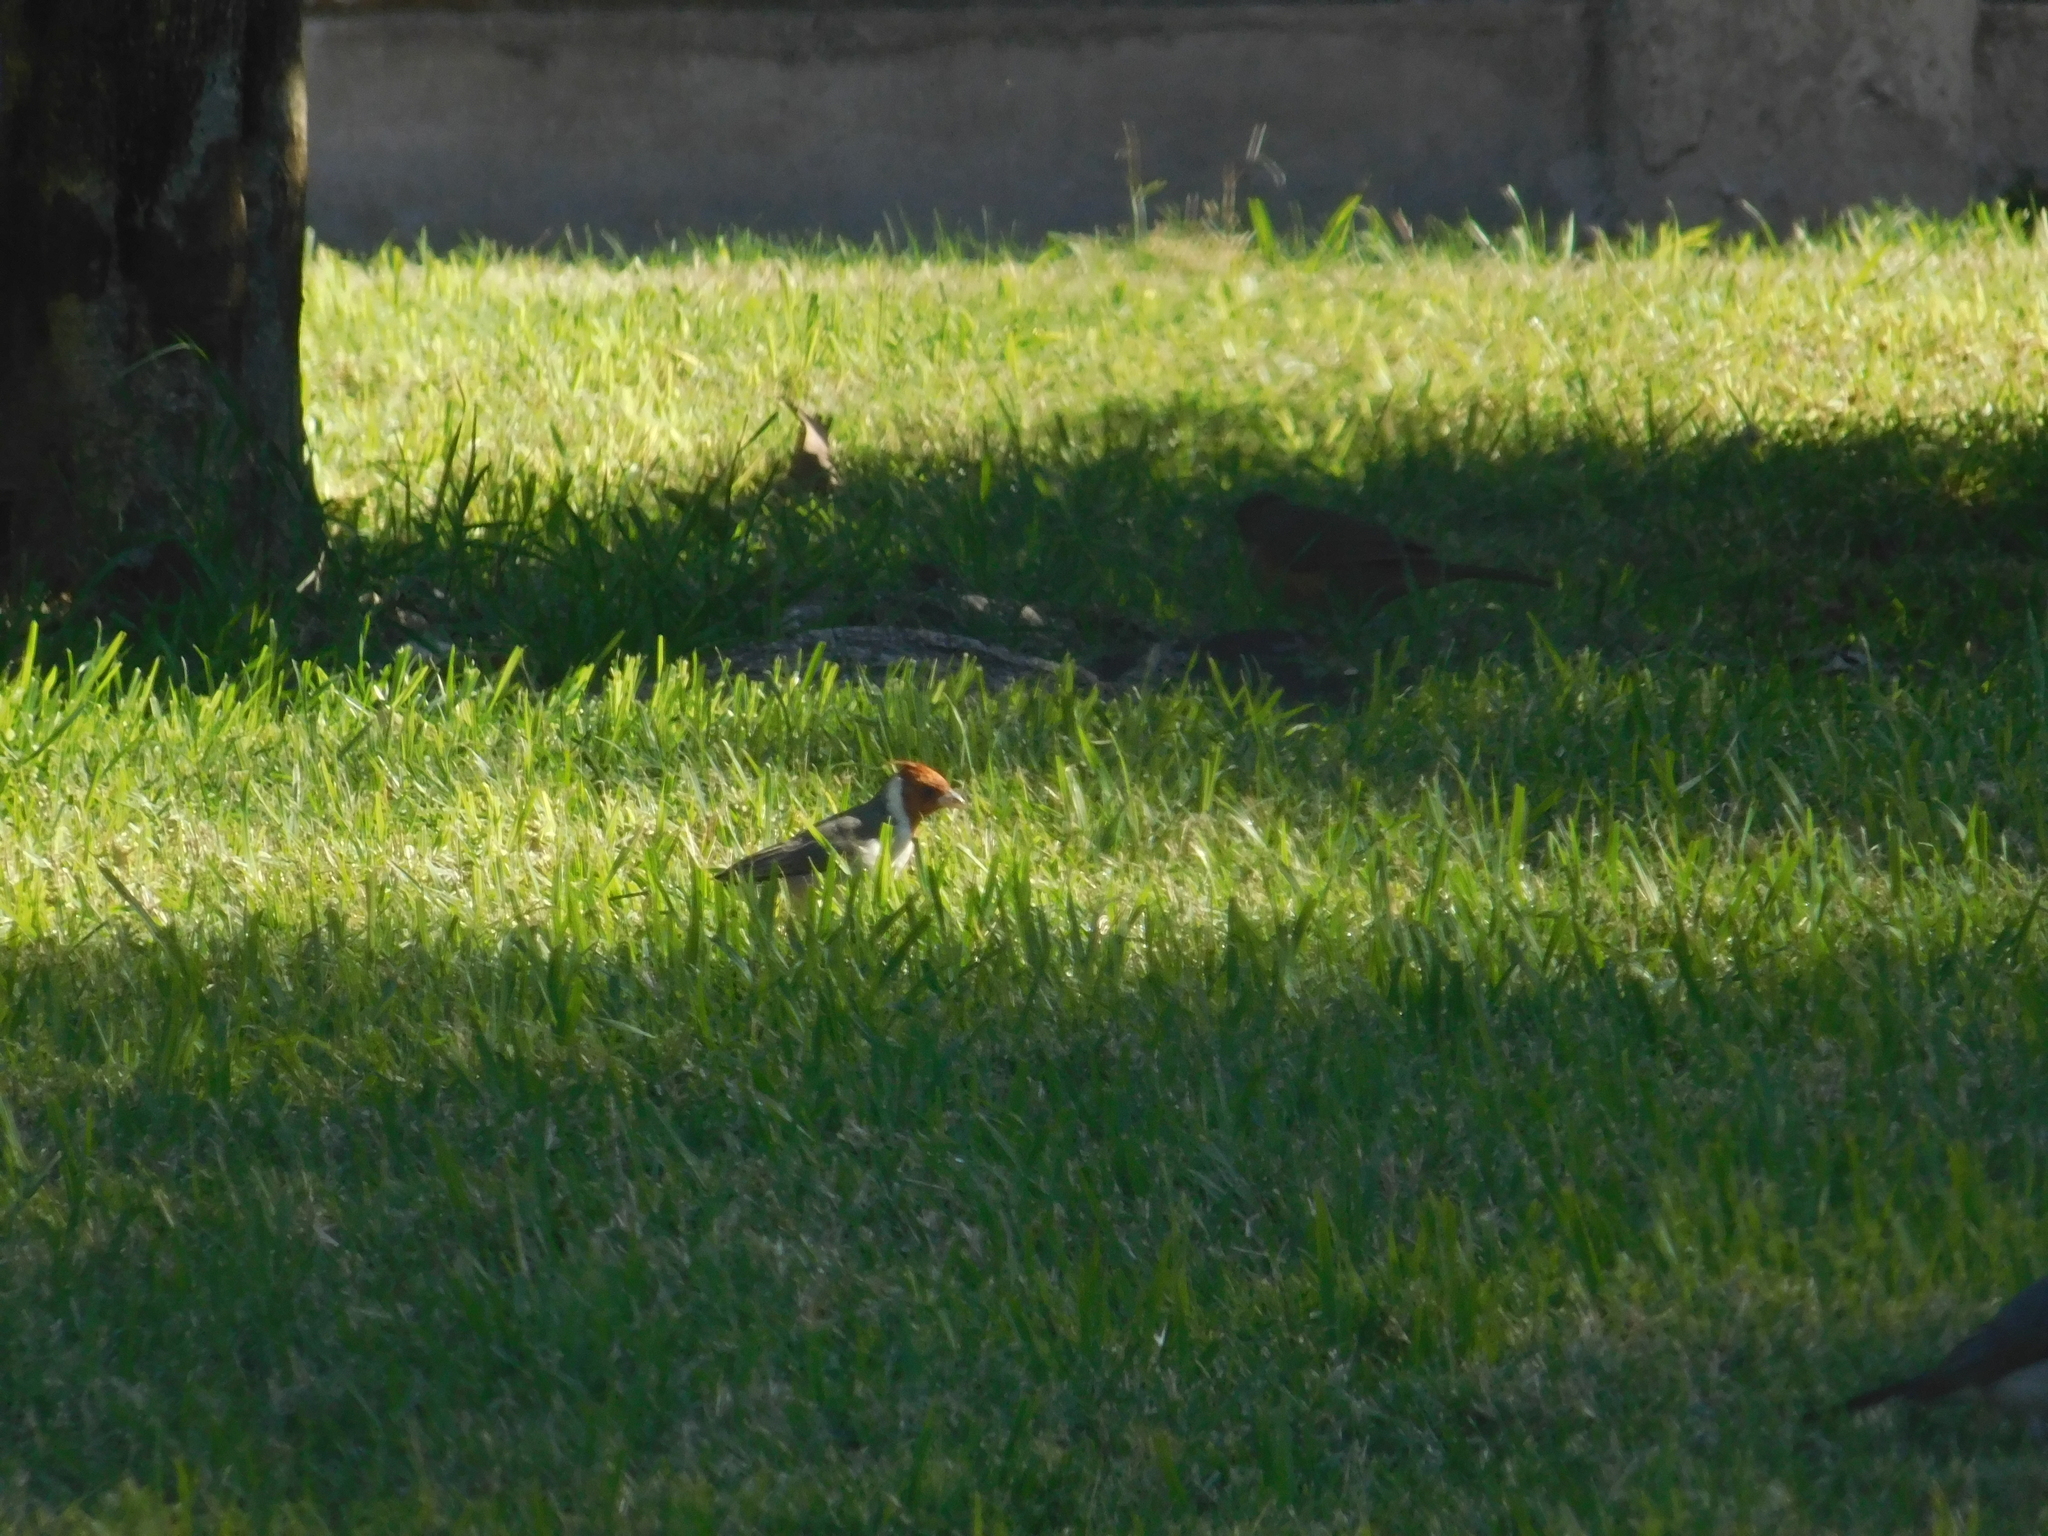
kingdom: Animalia
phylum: Chordata
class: Aves
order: Passeriformes
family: Thraupidae
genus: Paroaria
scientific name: Paroaria coronata
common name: Red-crested cardinal
